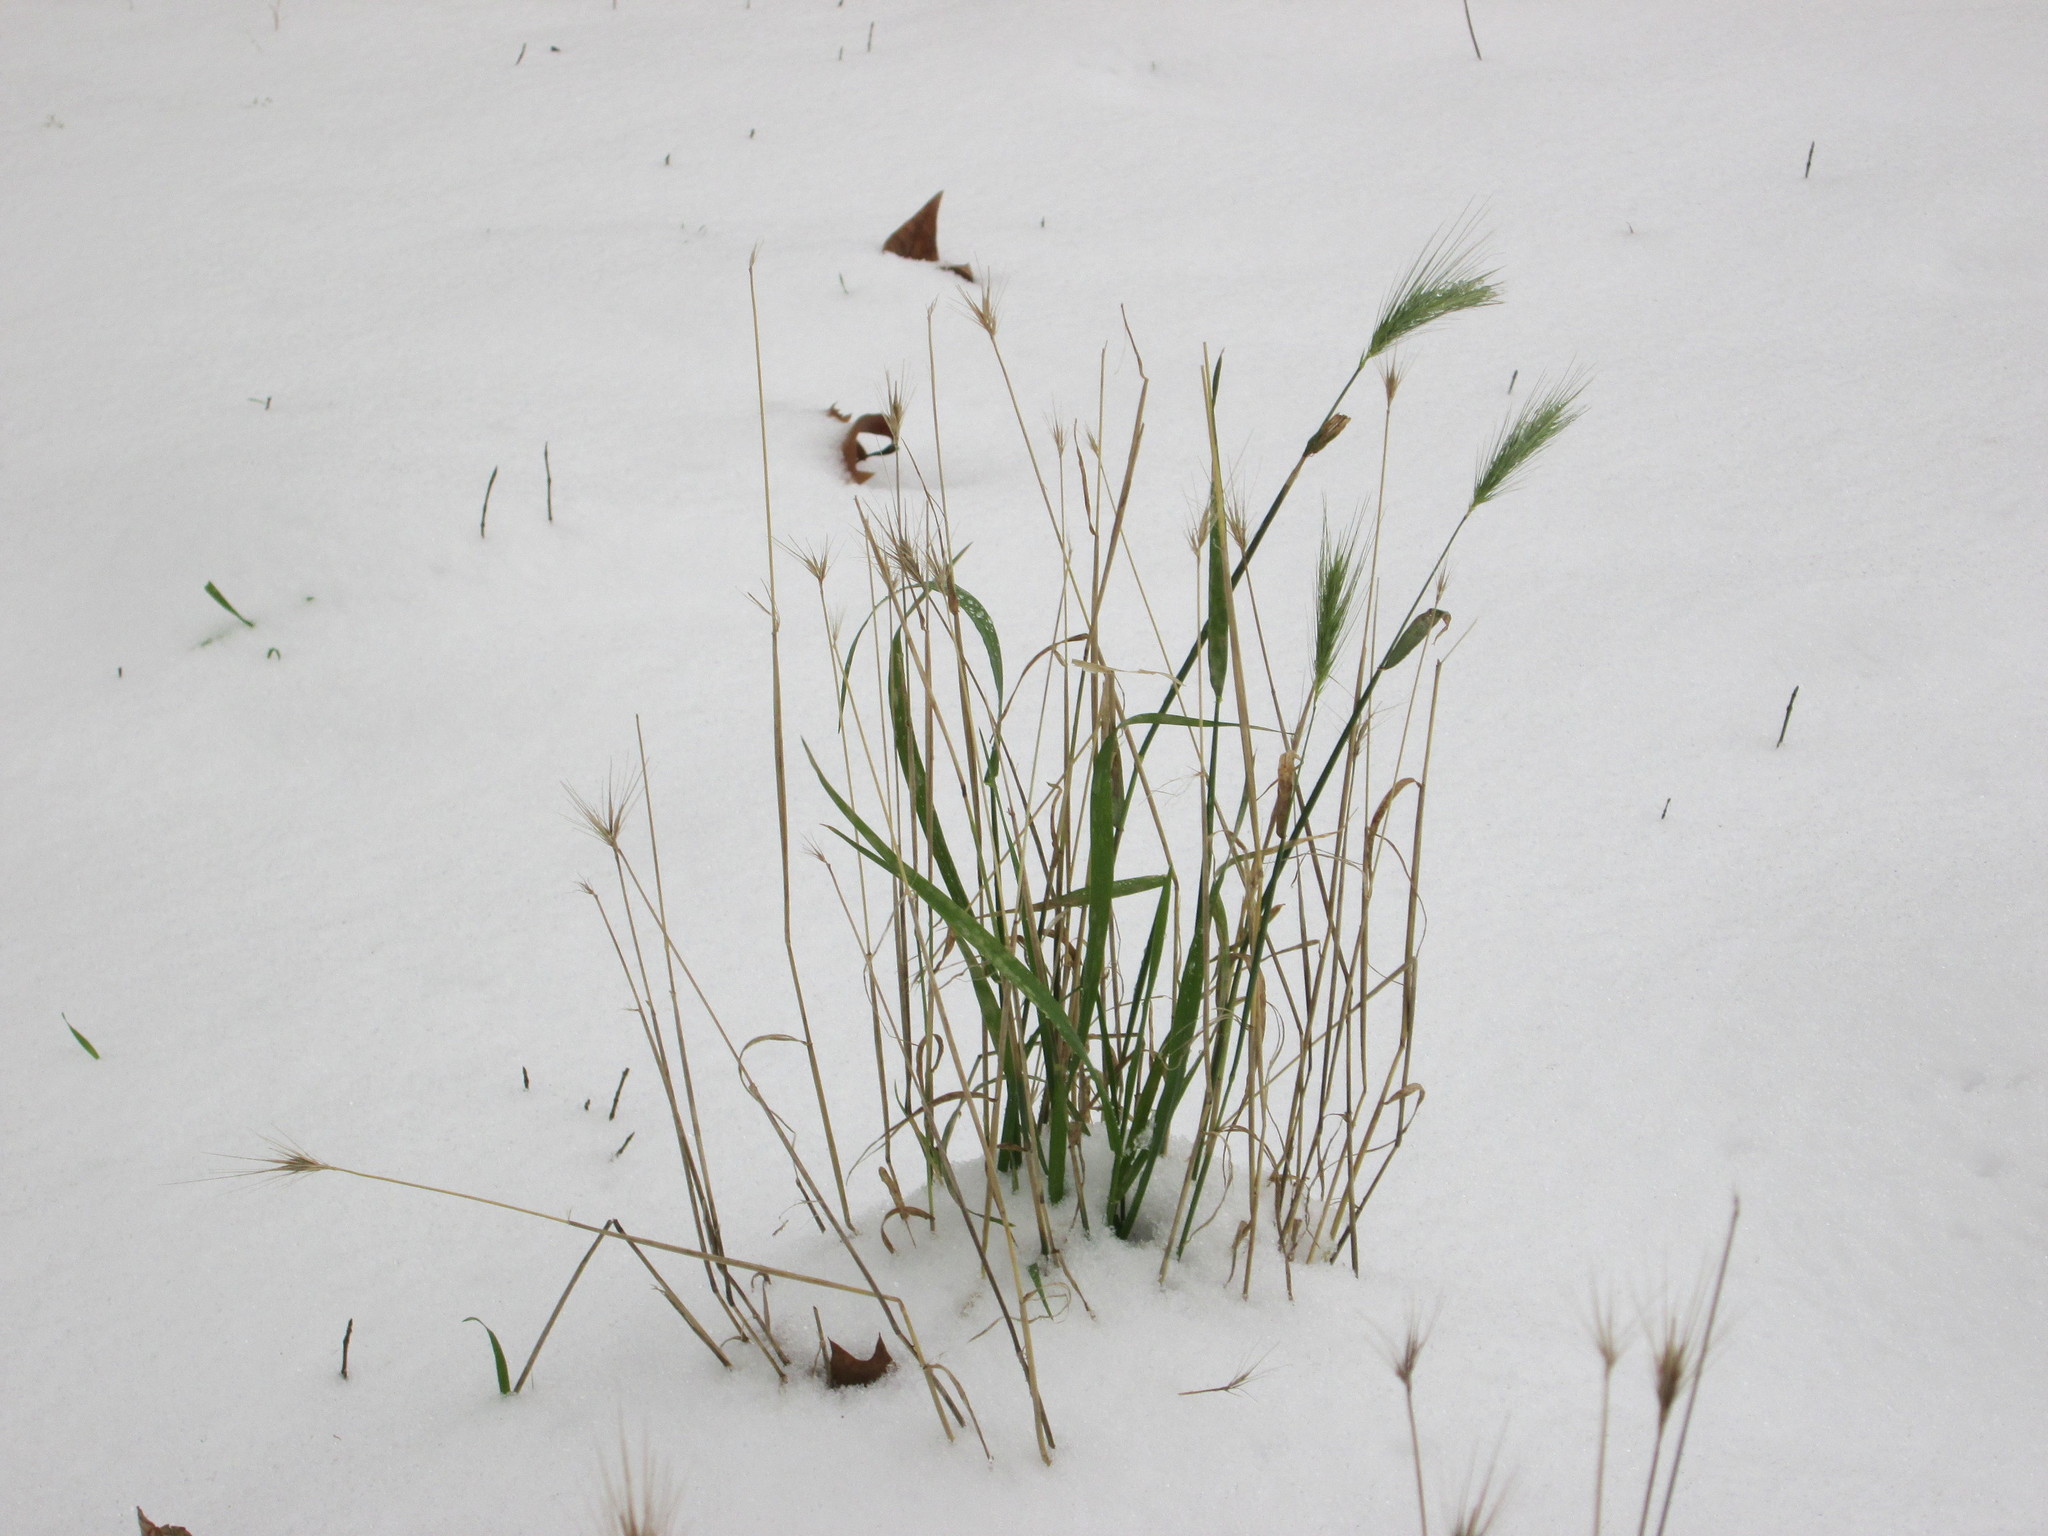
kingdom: Plantae
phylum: Tracheophyta
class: Liliopsida
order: Poales
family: Poaceae
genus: Hordeum
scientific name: Hordeum murinum
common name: Wall barley
